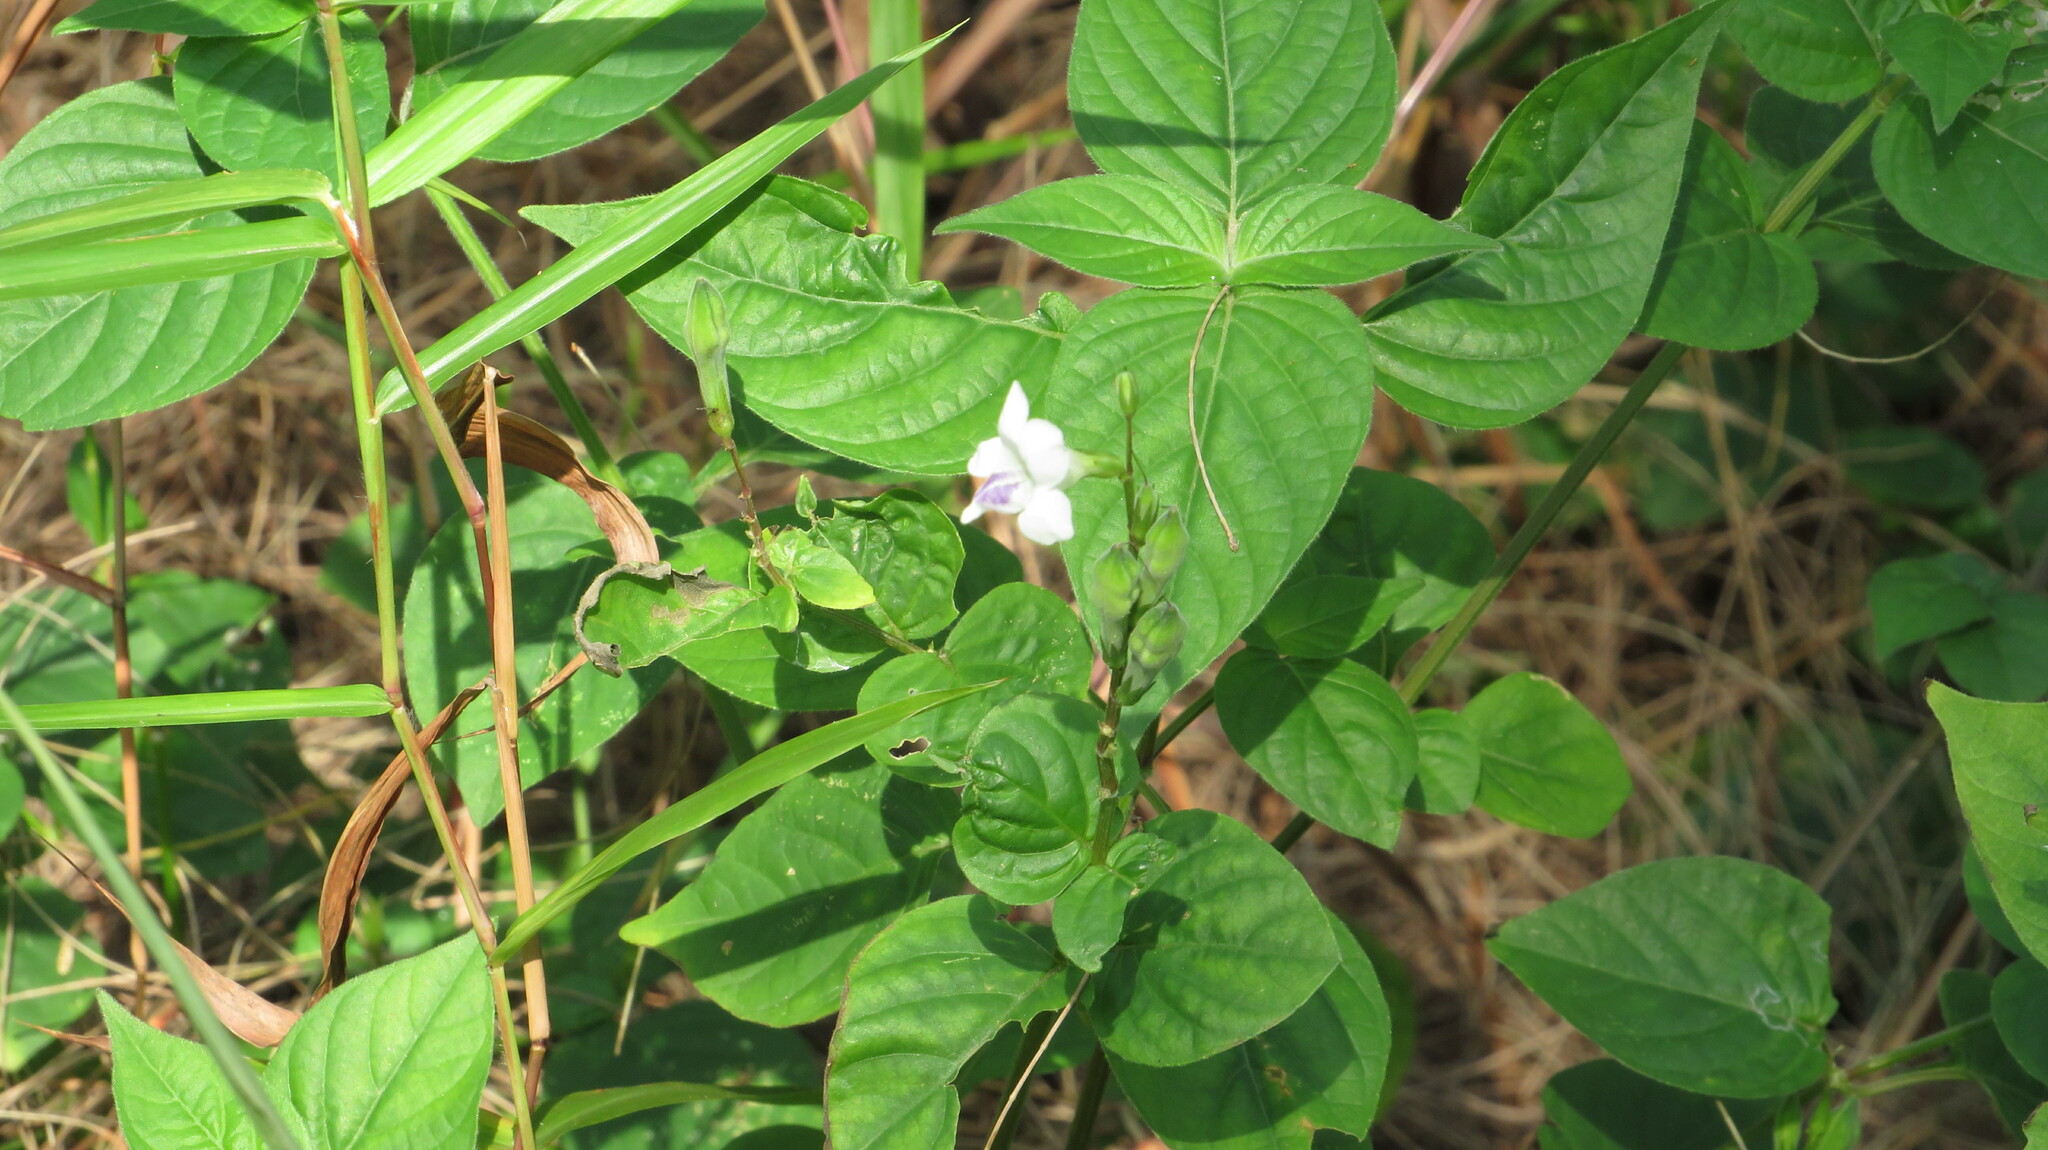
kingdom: Plantae
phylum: Tracheophyta
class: Magnoliopsida
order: Lamiales
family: Acanthaceae
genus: Asystasia
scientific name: Asystasia intrusa
